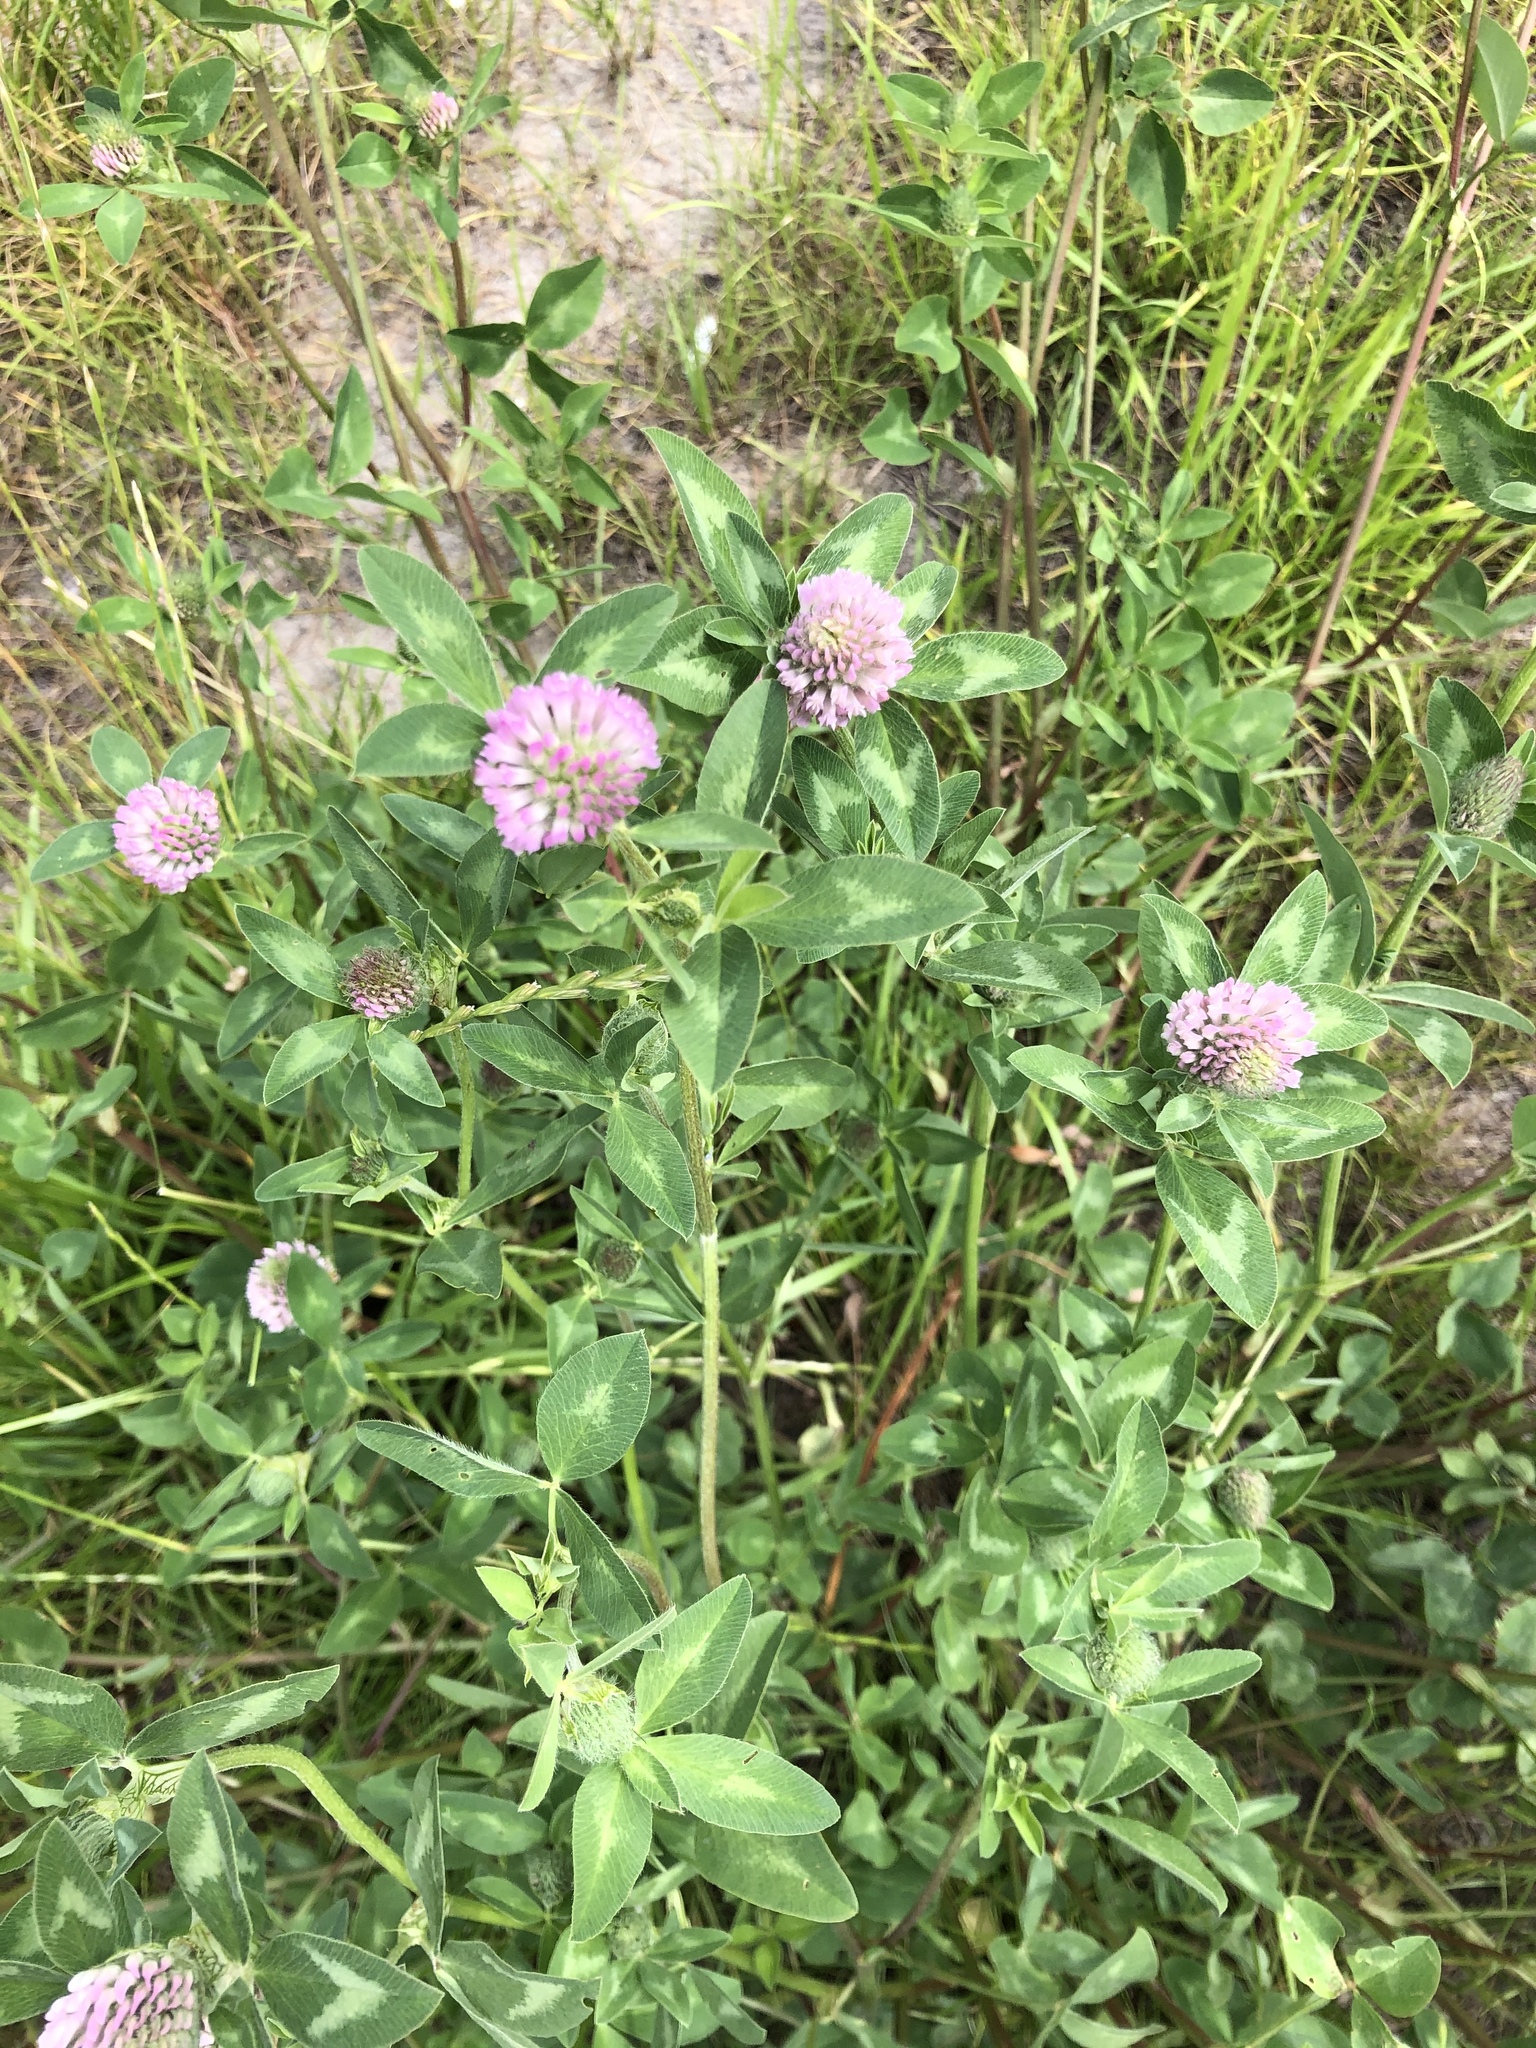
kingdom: Plantae
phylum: Tracheophyta
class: Magnoliopsida
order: Fabales
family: Fabaceae
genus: Trifolium
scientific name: Trifolium pratense
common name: Red clover
